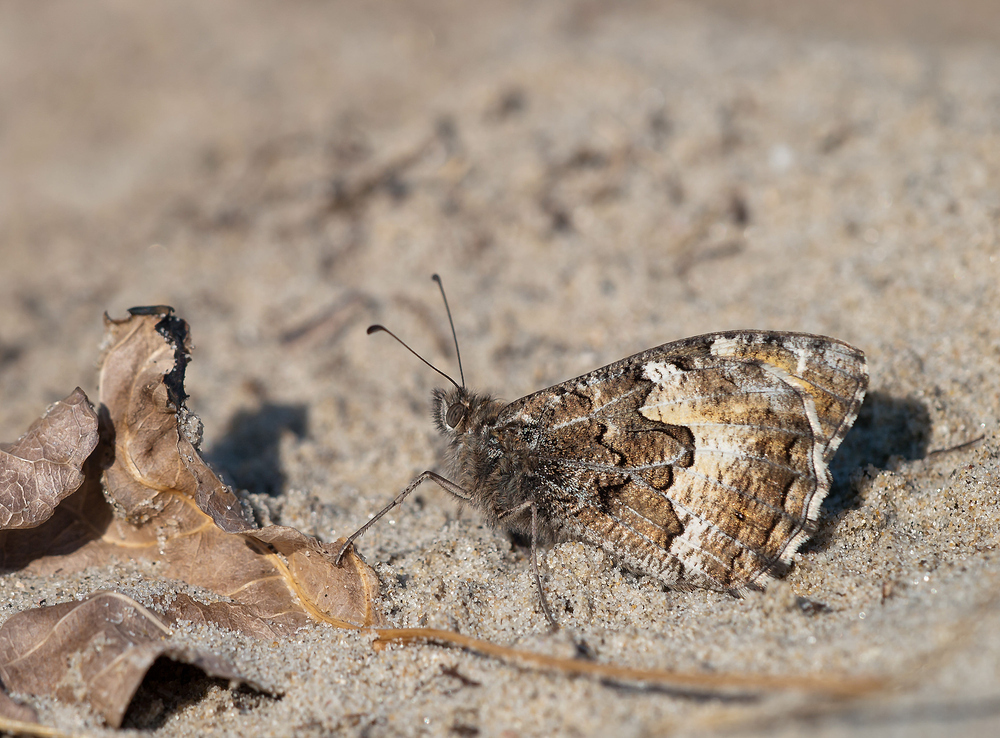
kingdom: Animalia
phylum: Arthropoda
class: Insecta
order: Lepidoptera
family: Nymphalidae
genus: Hipparchia
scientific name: Hipparchia semele
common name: Grayling
